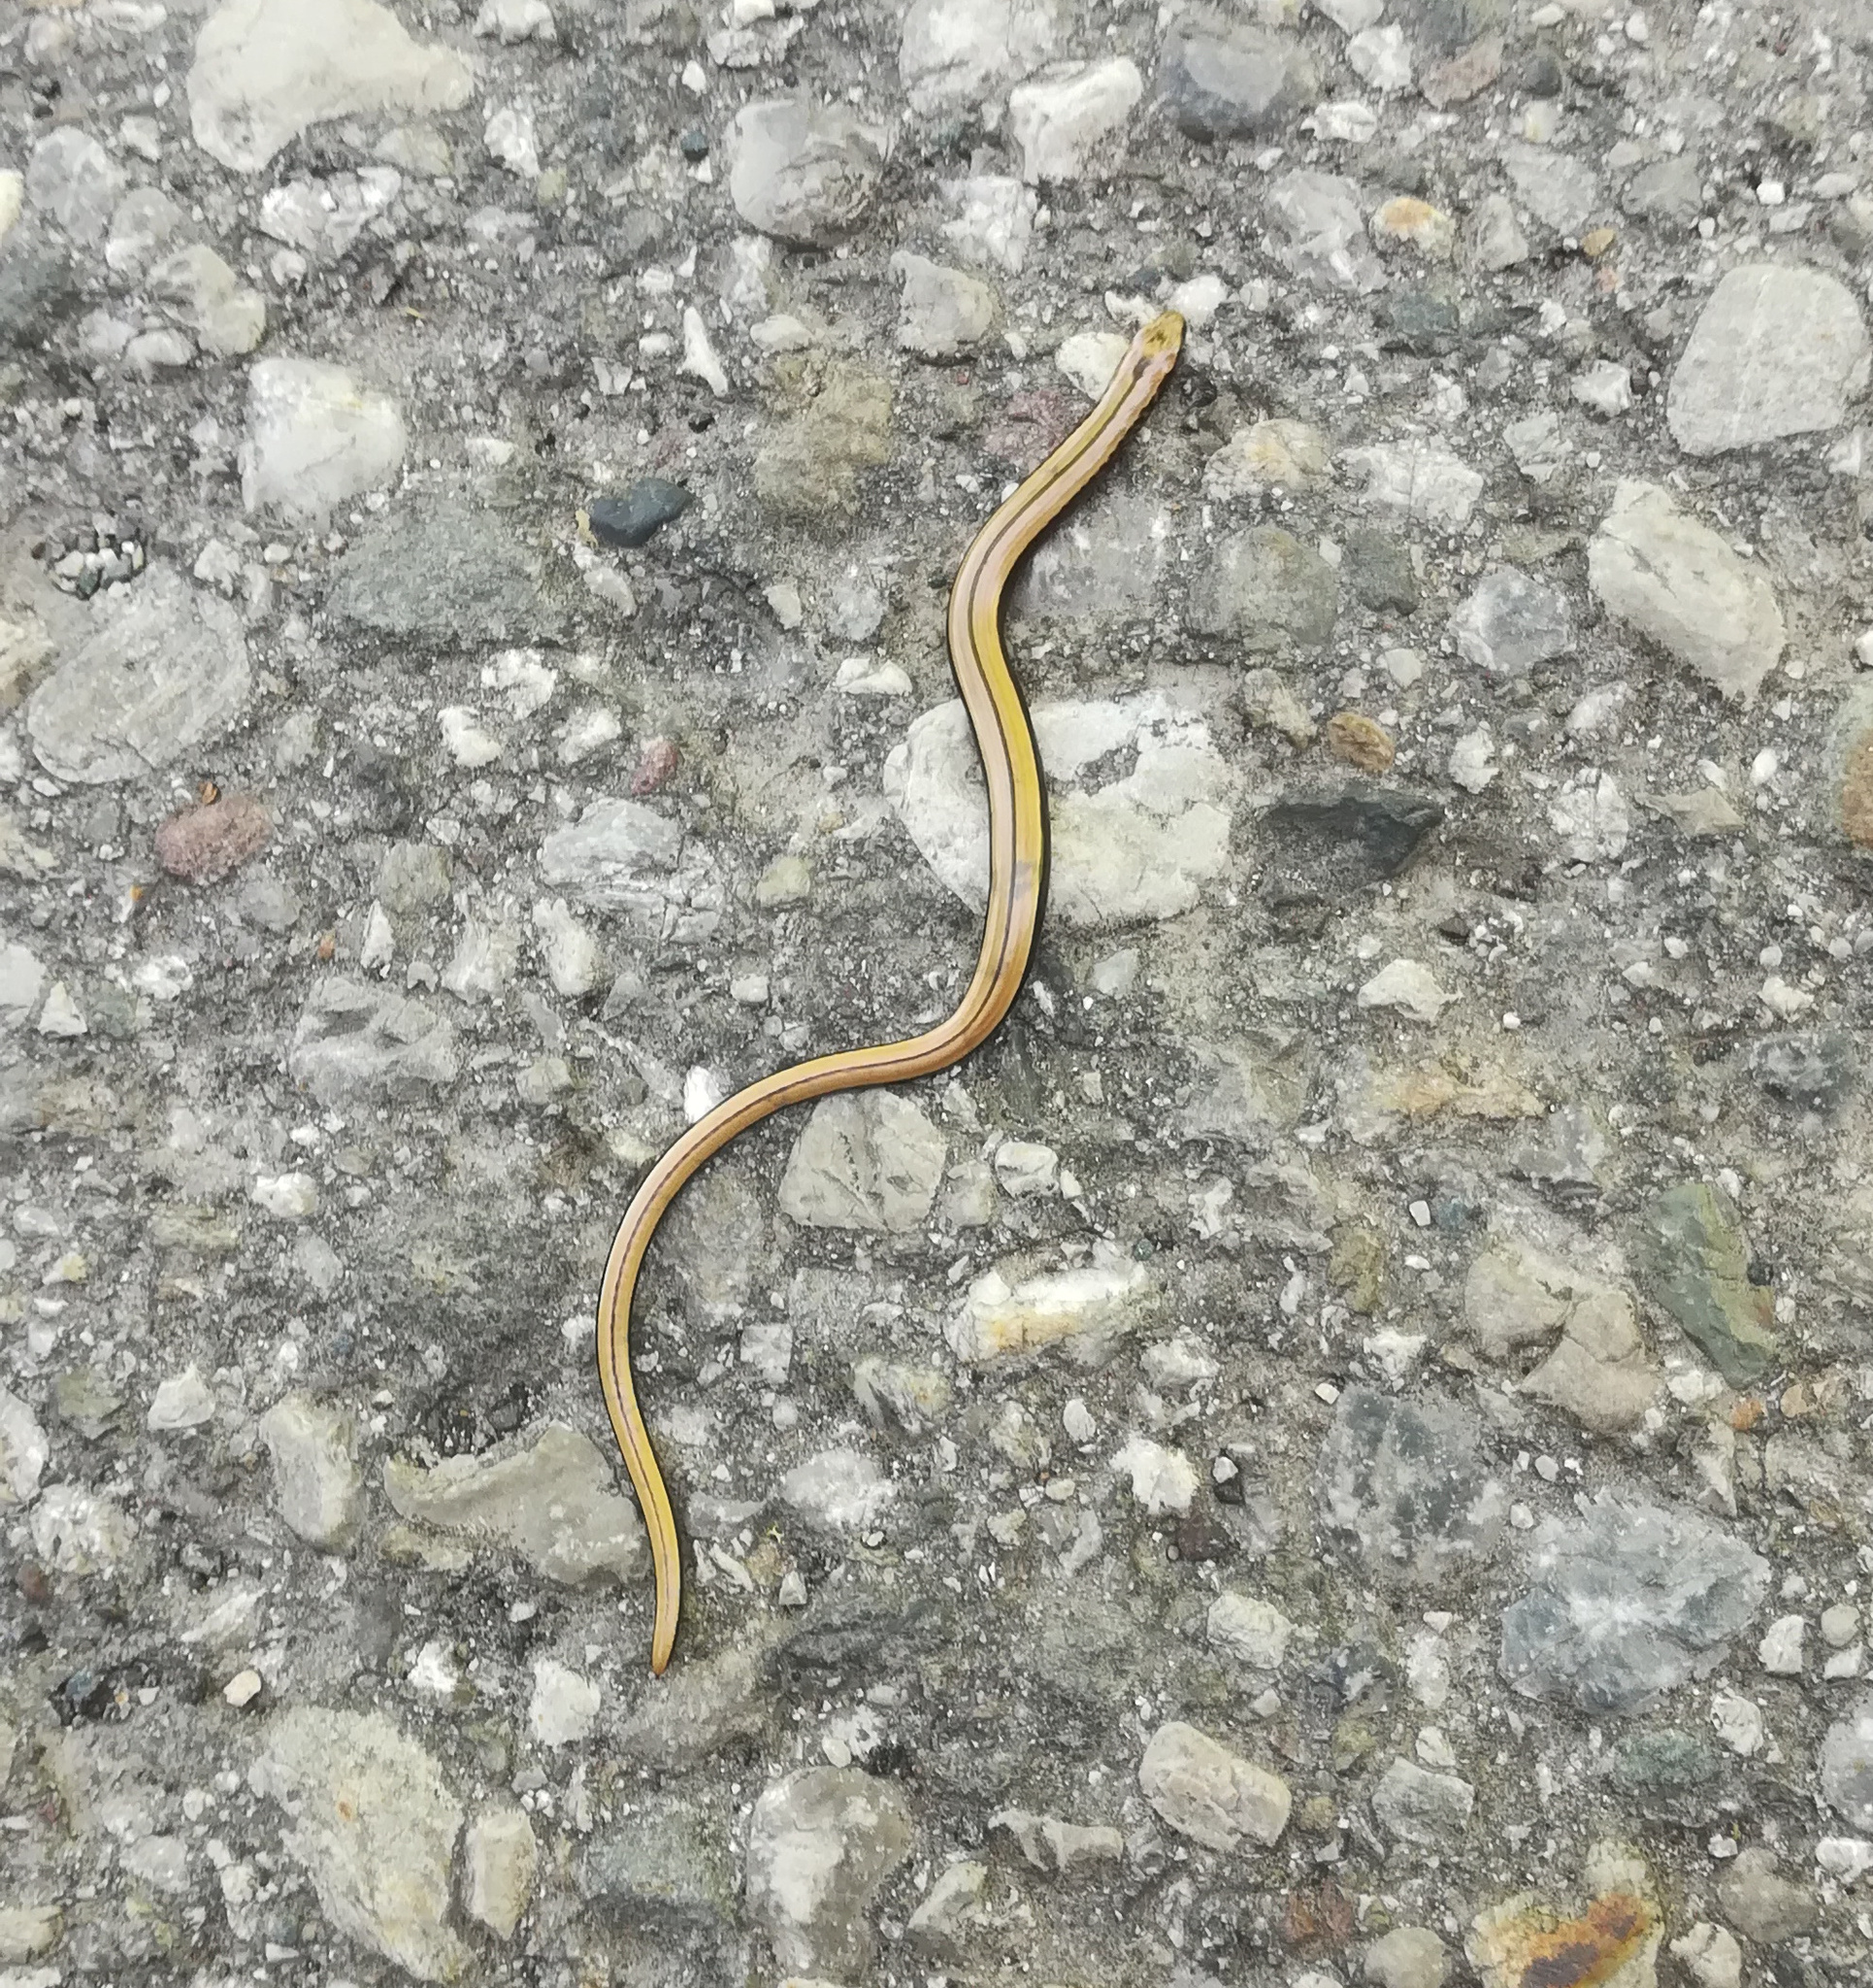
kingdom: Animalia
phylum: Chordata
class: Squamata
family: Anguidae
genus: Anguis
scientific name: Anguis fragilis
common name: Slow worm
